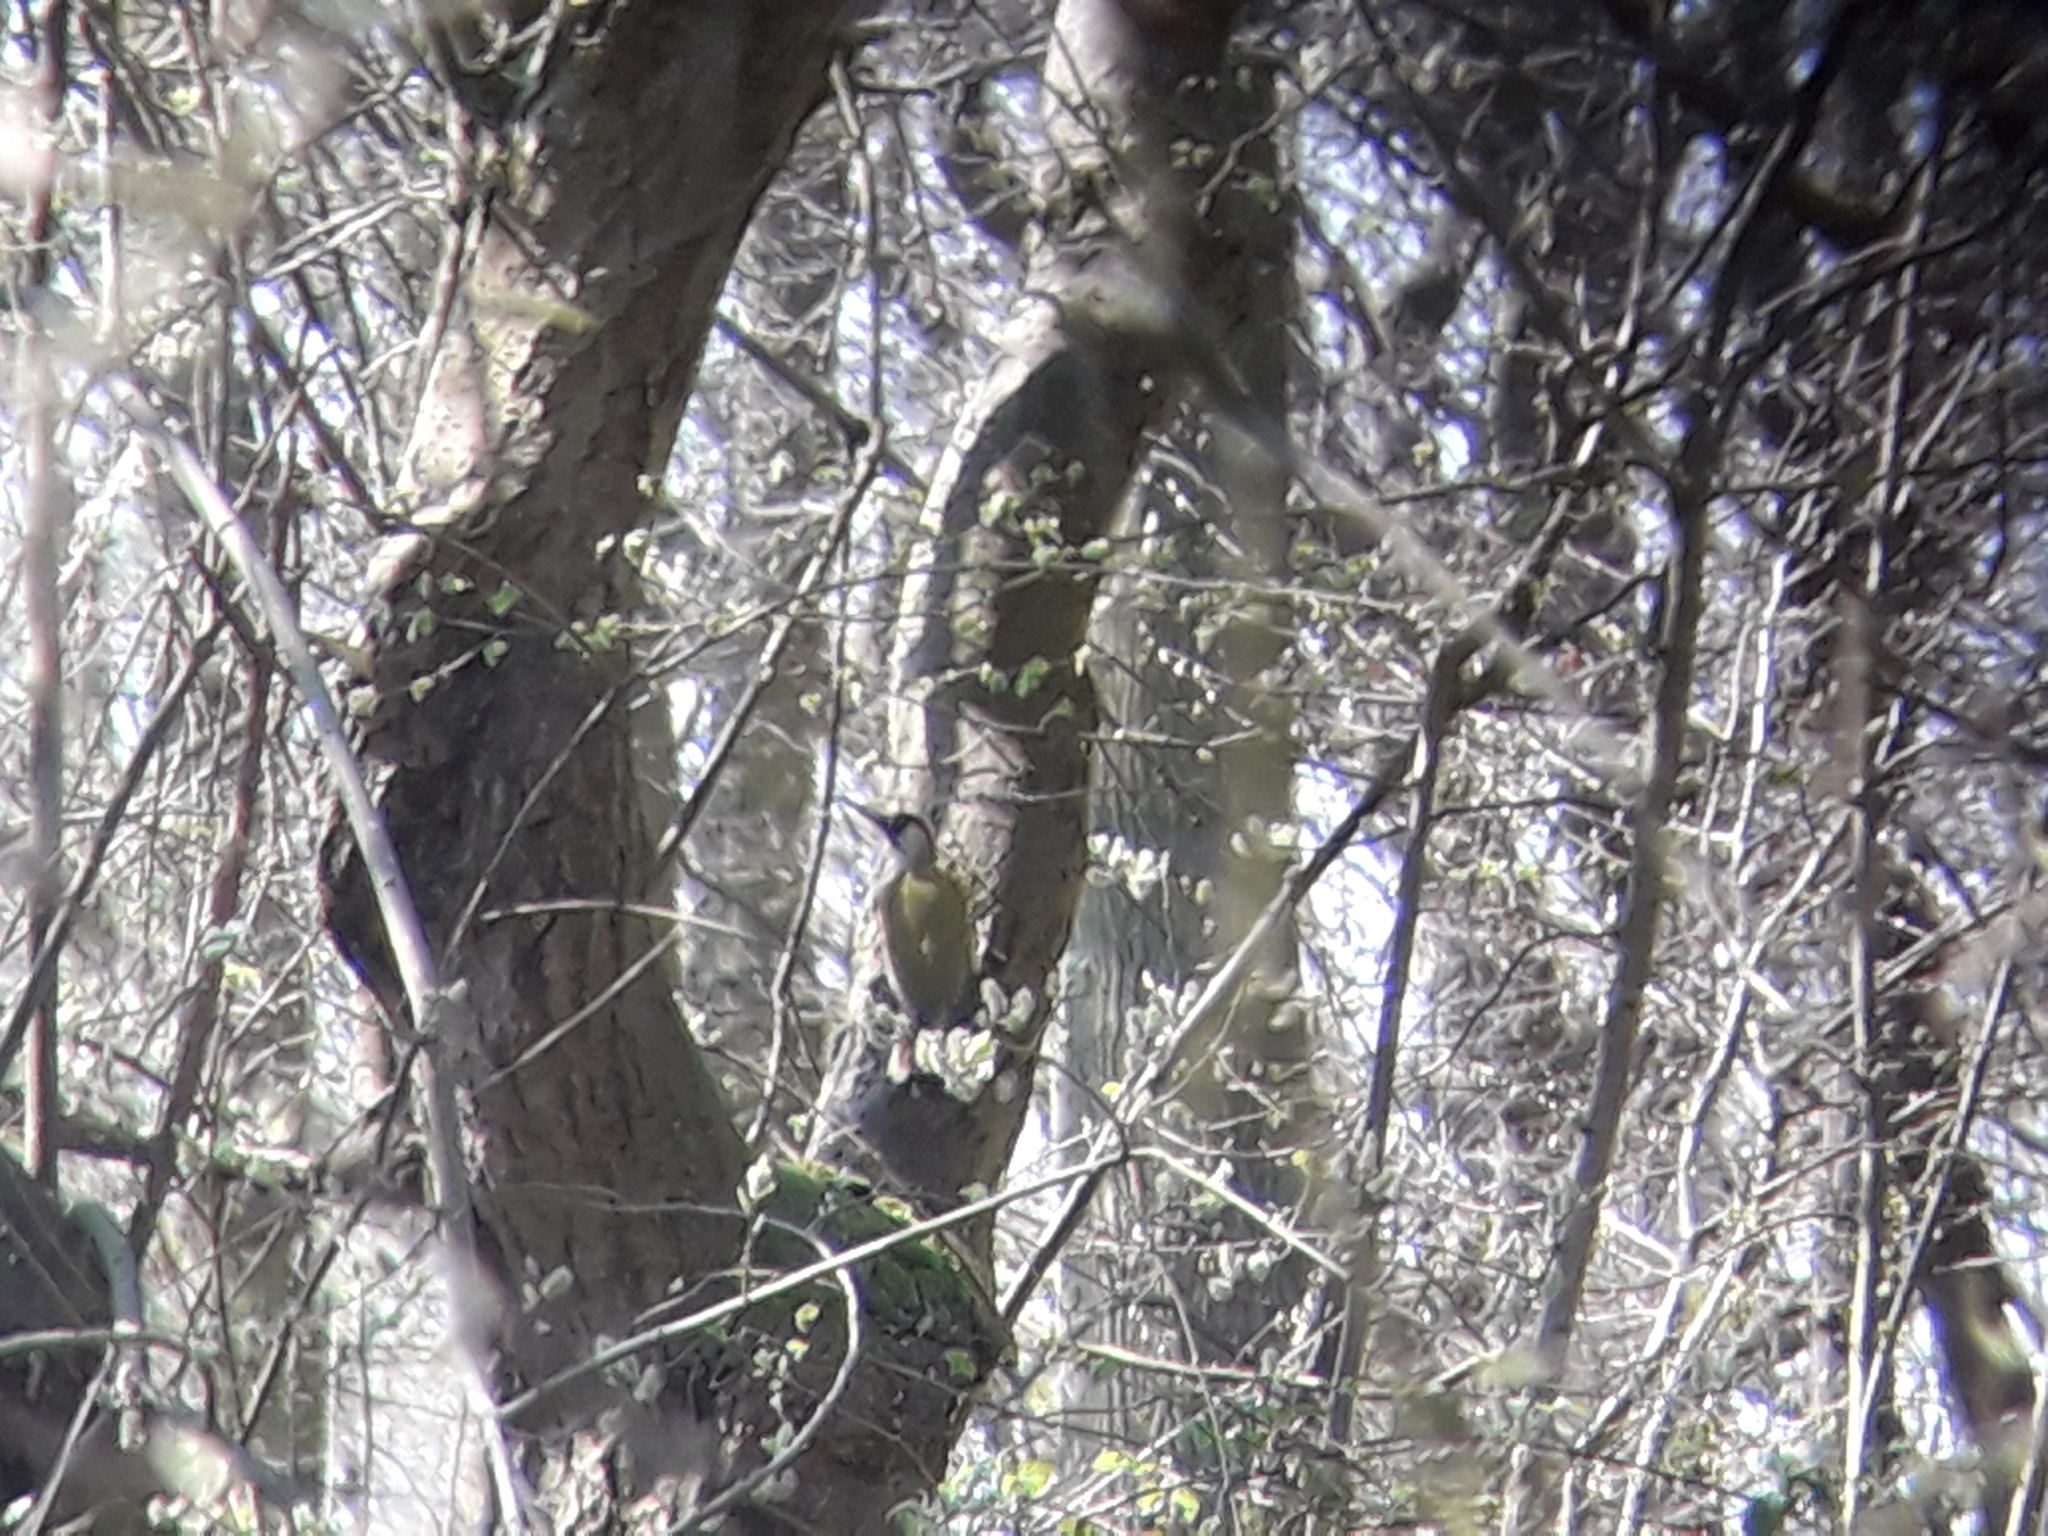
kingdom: Animalia
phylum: Chordata
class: Aves
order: Piciformes
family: Picidae
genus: Picus
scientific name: Picus viridis
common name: European green woodpecker
